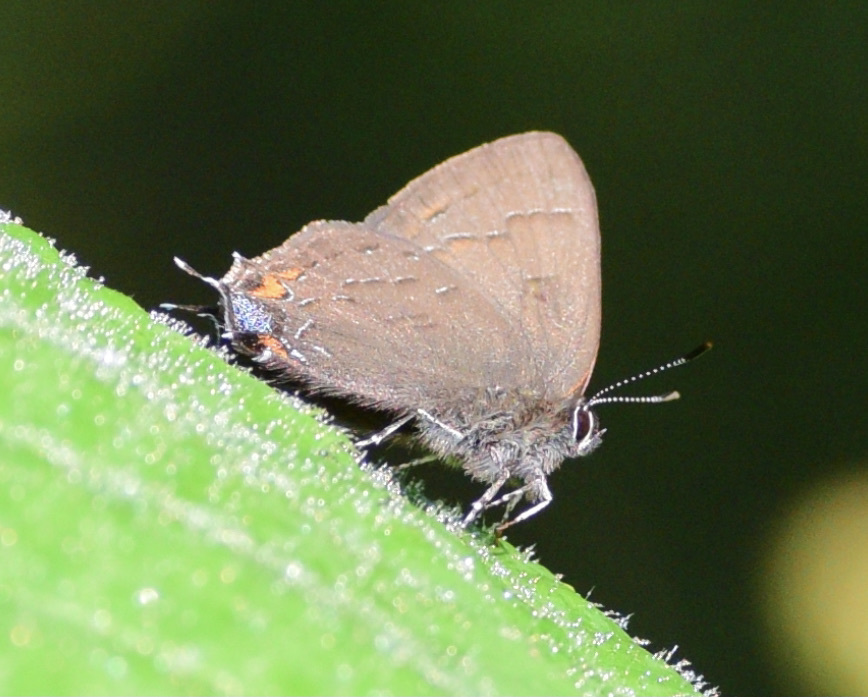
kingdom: Animalia
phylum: Arthropoda
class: Insecta
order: Lepidoptera
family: Lycaenidae
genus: Satyrium
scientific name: Satyrium calanus
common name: Banded hairstreak
